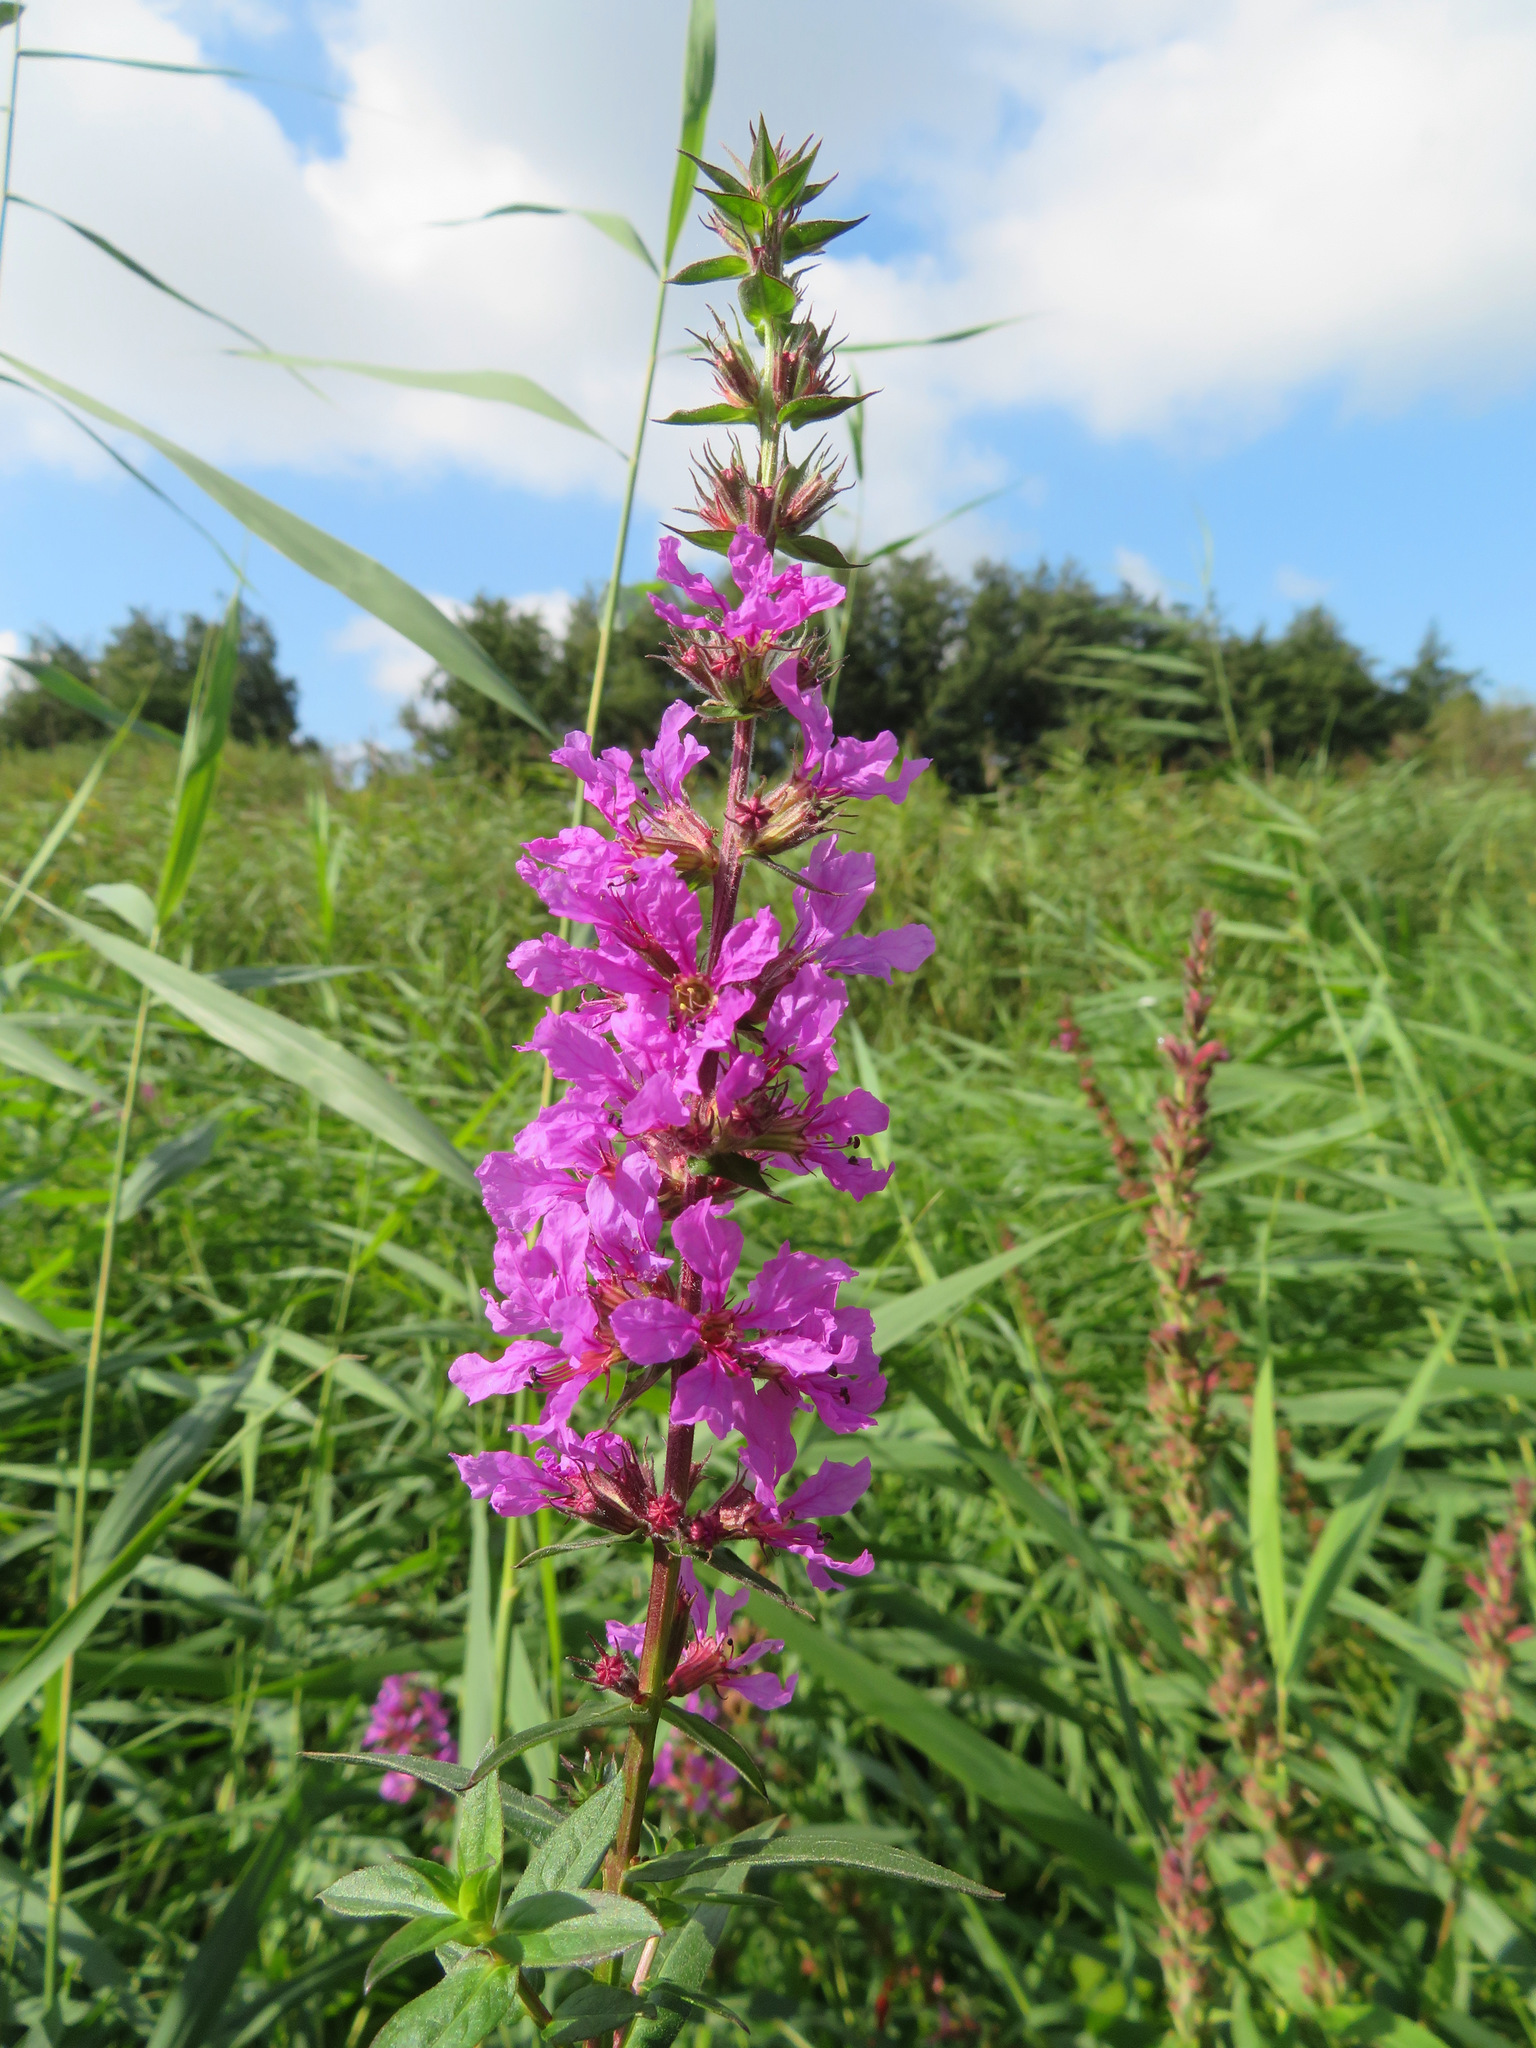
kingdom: Plantae
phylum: Tracheophyta
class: Magnoliopsida
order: Myrtales
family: Lythraceae
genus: Lythrum
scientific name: Lythrum salicaria
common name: Purple loosestrife
